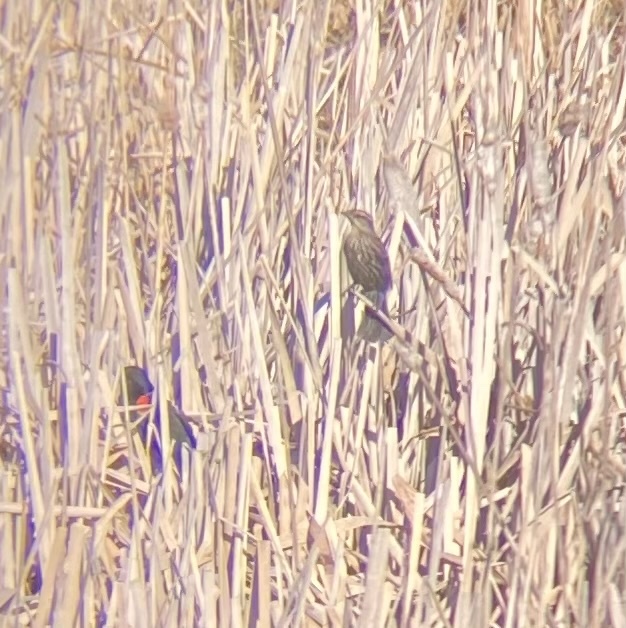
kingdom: Animalia
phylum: Chordata
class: Aves
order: Passeriformes
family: Icteridae
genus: Agelaius
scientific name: Agelaius phoeniceus
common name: Red-winged blackbird
